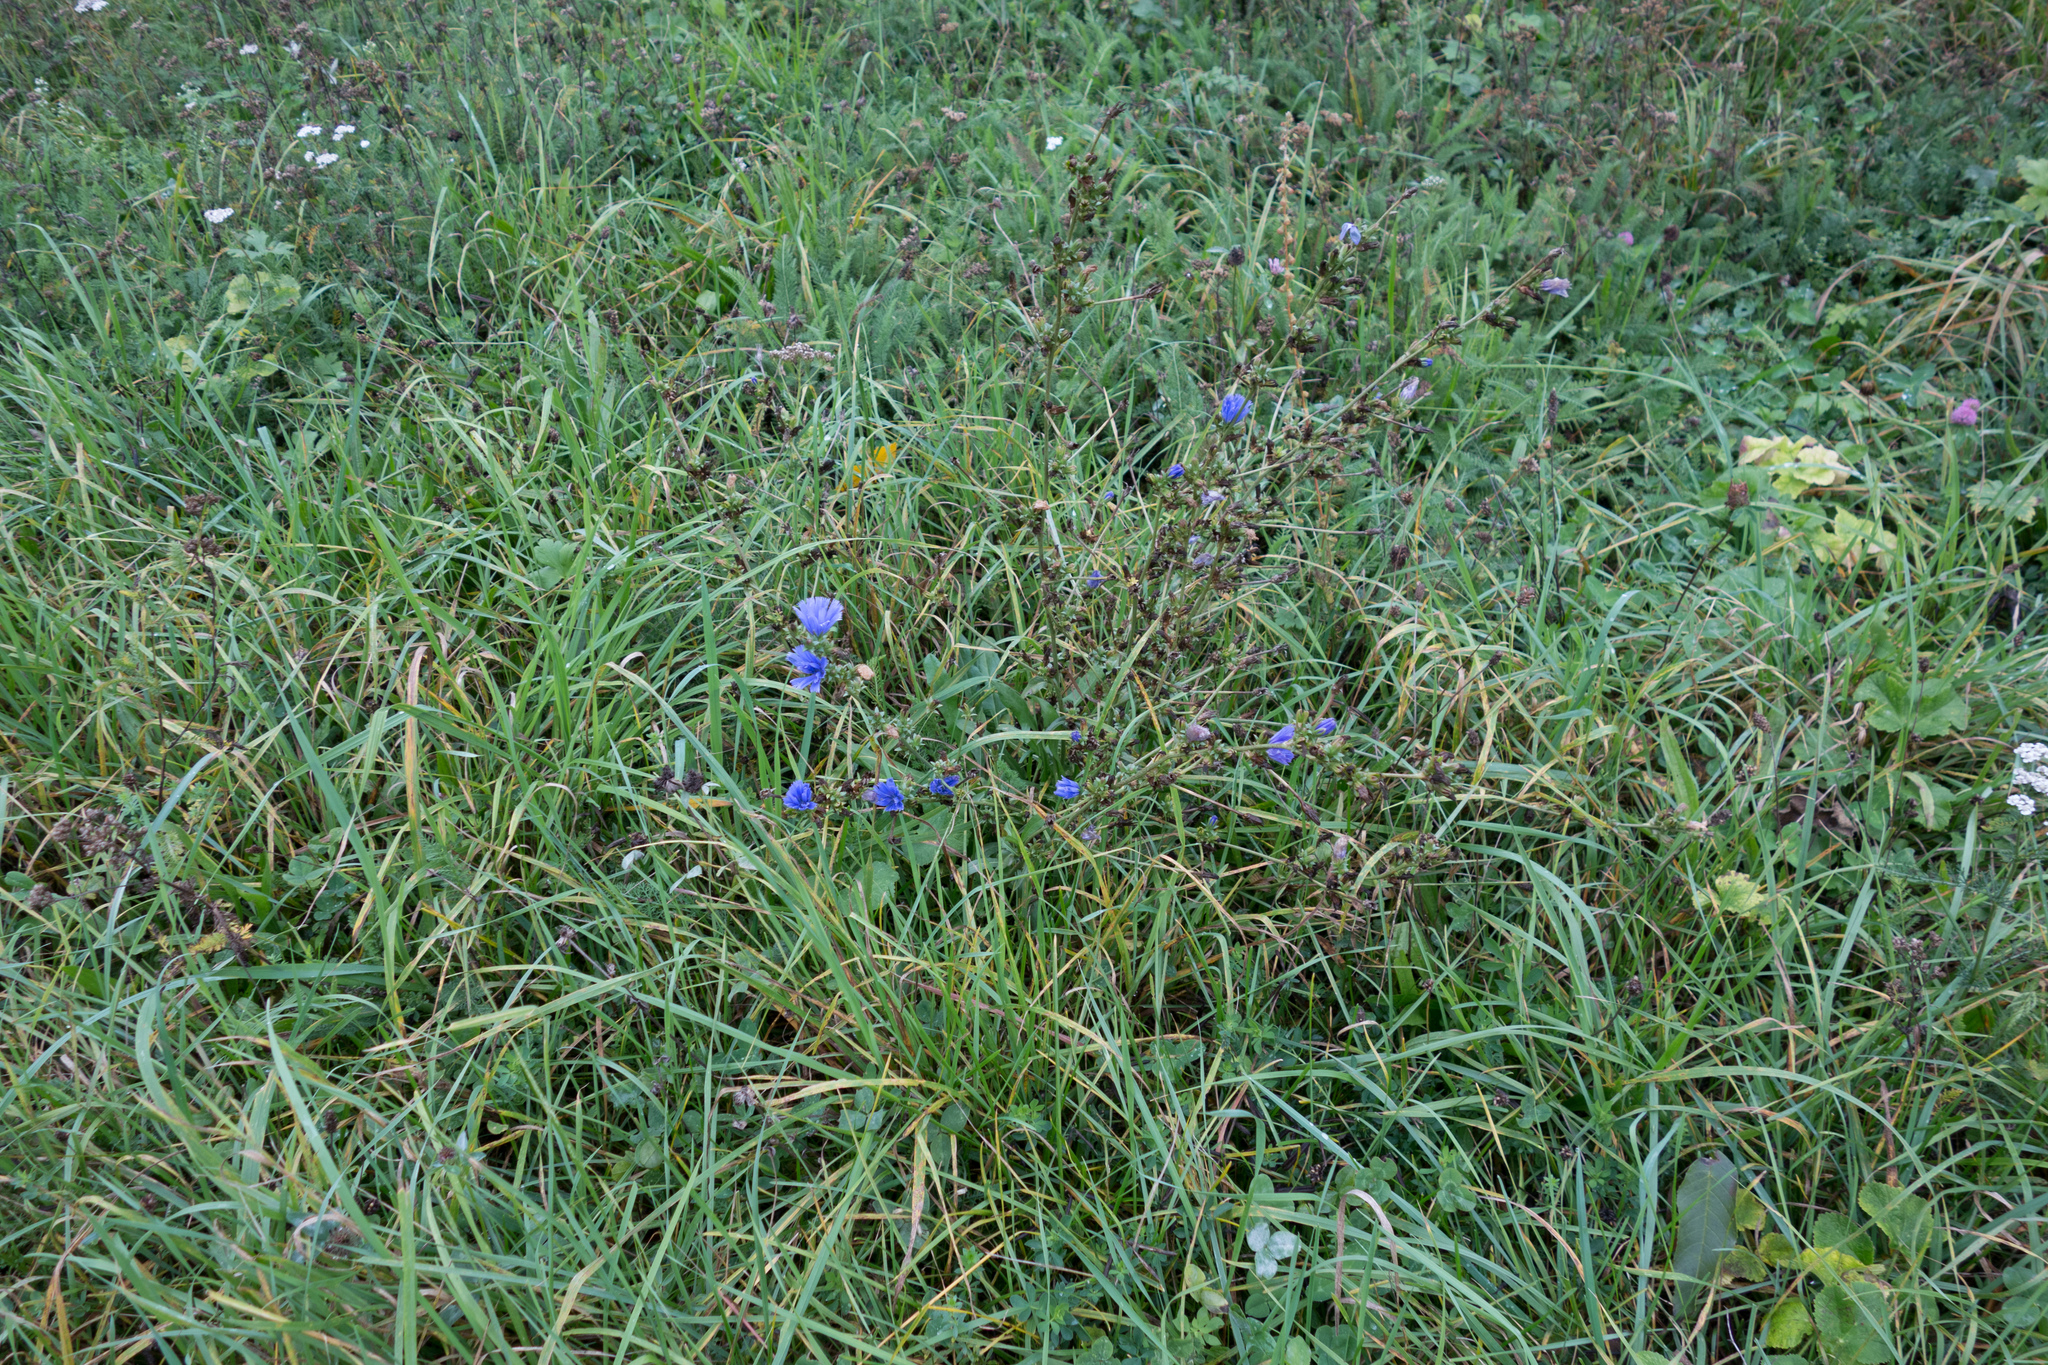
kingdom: Plantae
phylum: Tracheophyta
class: Magnoliopsida
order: Asterales
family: Asteraceae
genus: Cichorium
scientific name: Cichorium intybus
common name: Chicory
